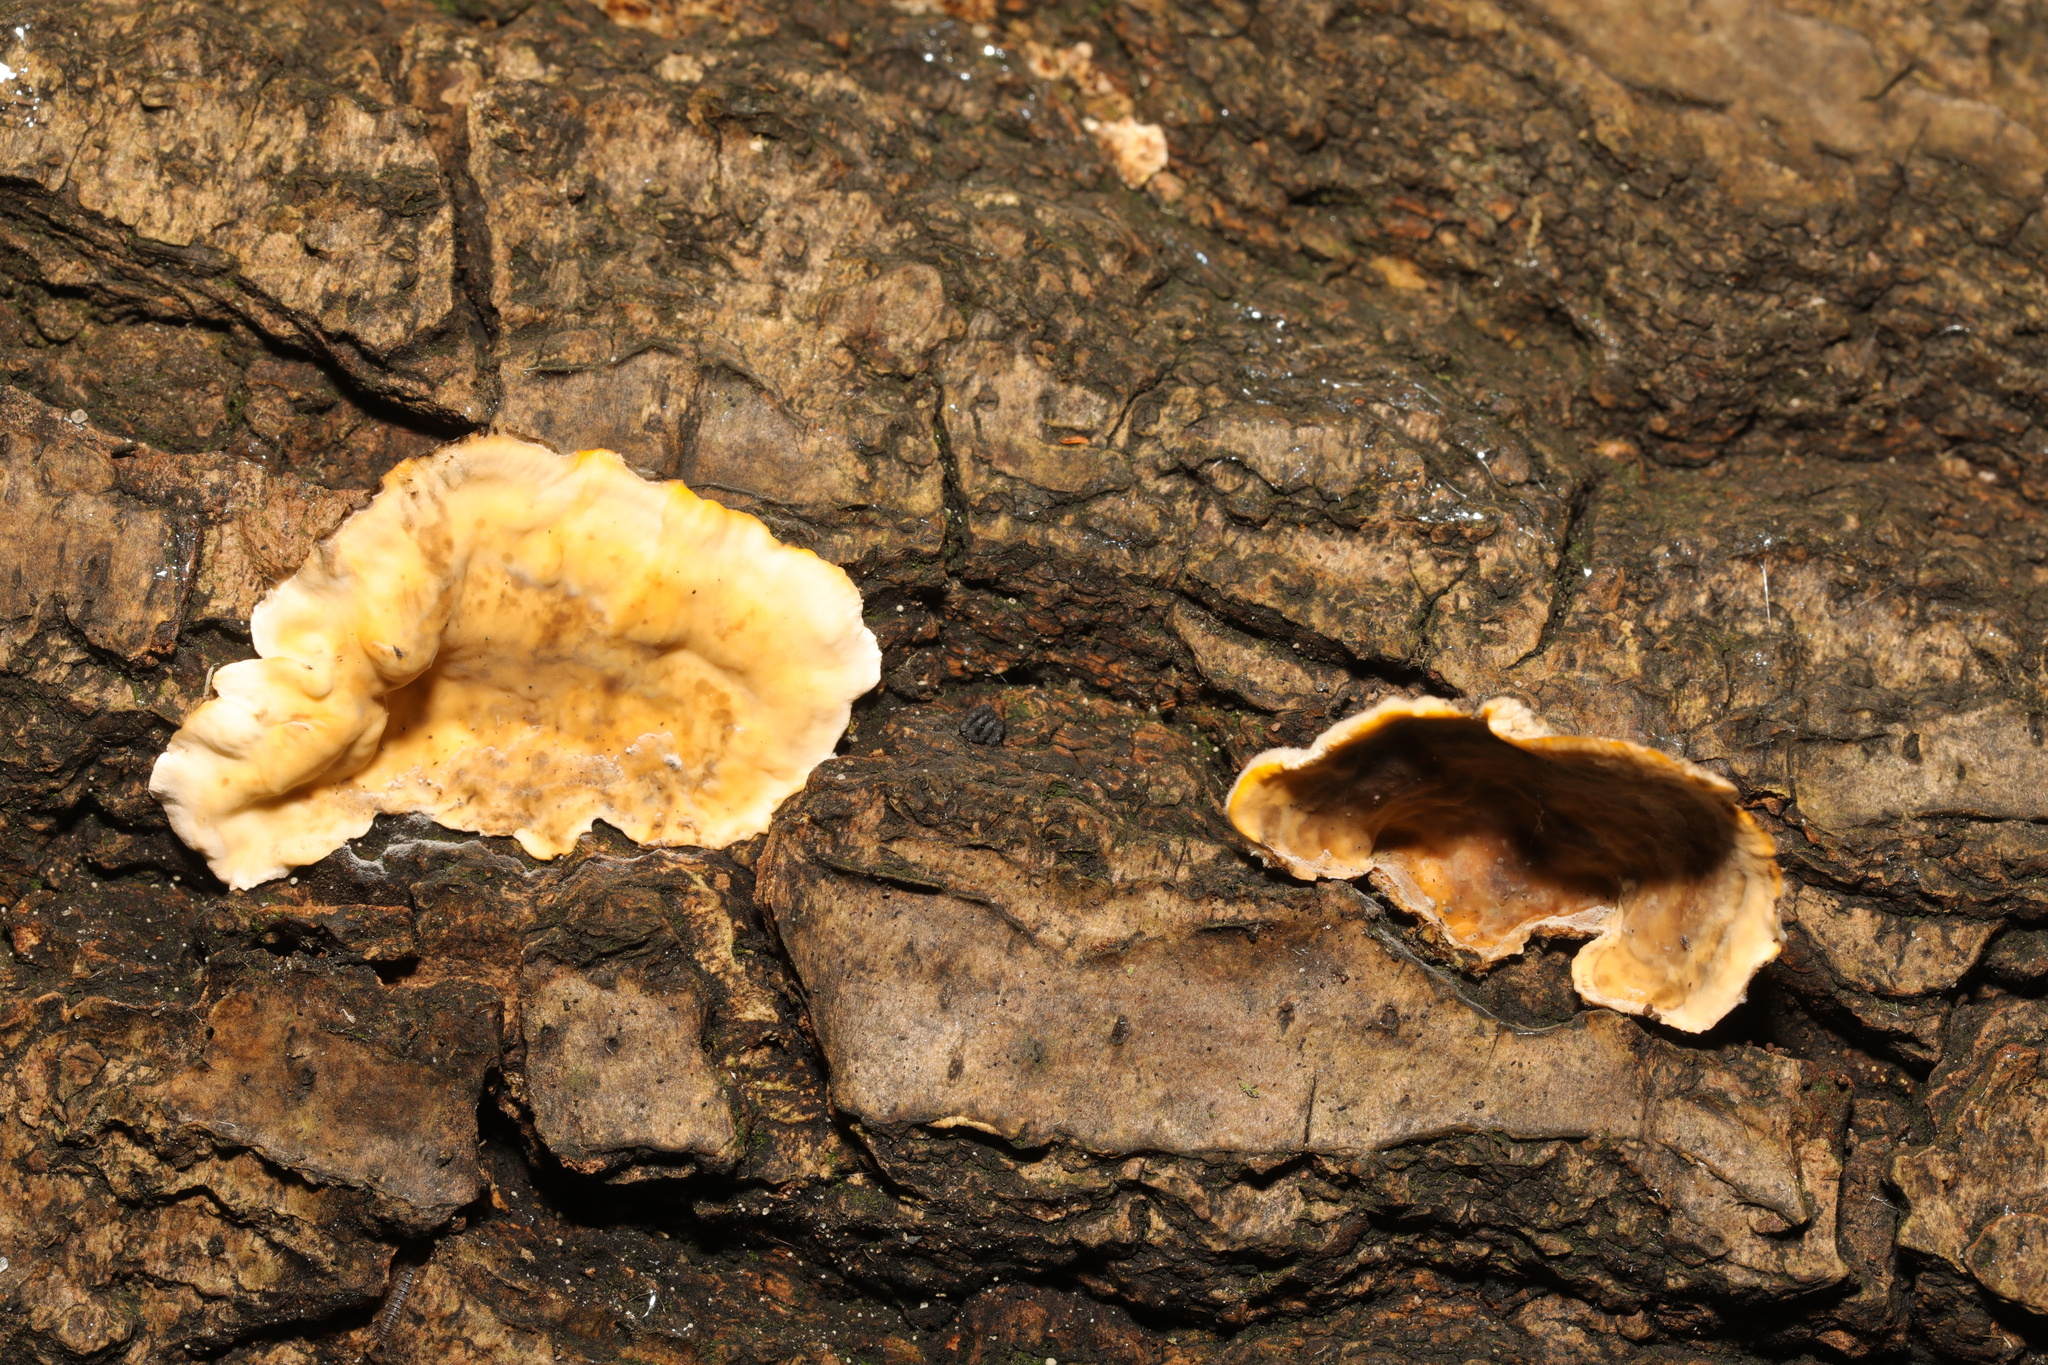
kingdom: Fungi
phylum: Basidiomycota
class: Agaricomycetes
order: Russulales
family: Stereaceae
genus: Stereum
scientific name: Stereum hirsutum
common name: Hairy curtain crust
